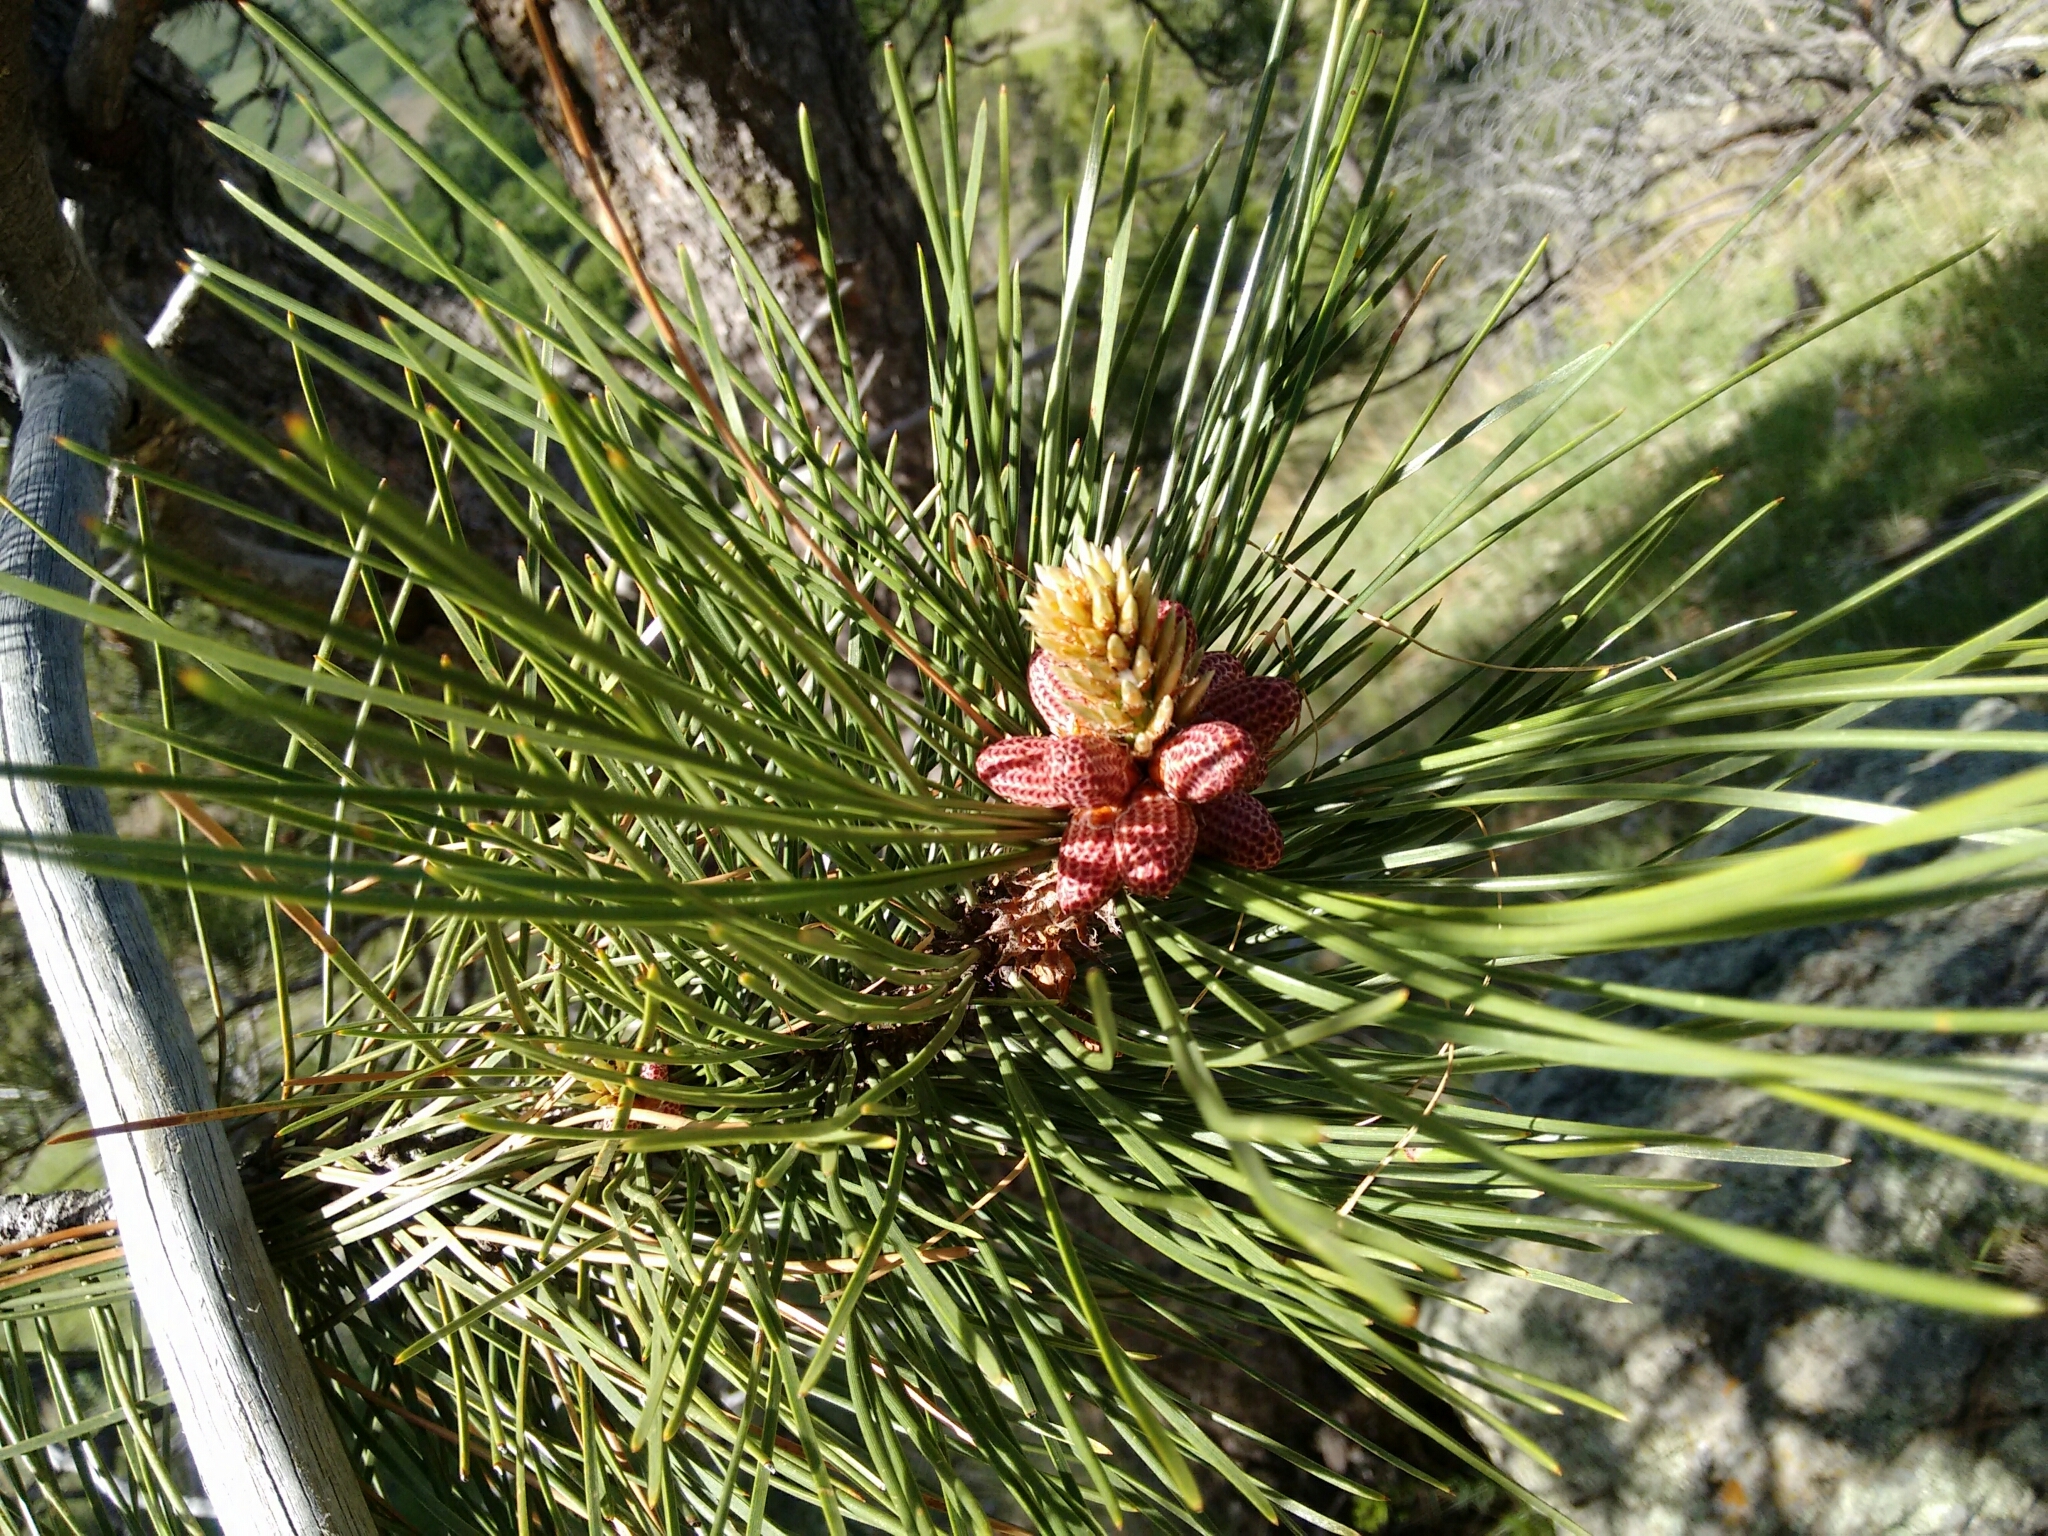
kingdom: Plantae
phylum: Tracheophyta
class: Pinopsida
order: Pinales
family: Pinaceae
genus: Pinus
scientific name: Pinus ponderosa
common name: Western yellow-pine
